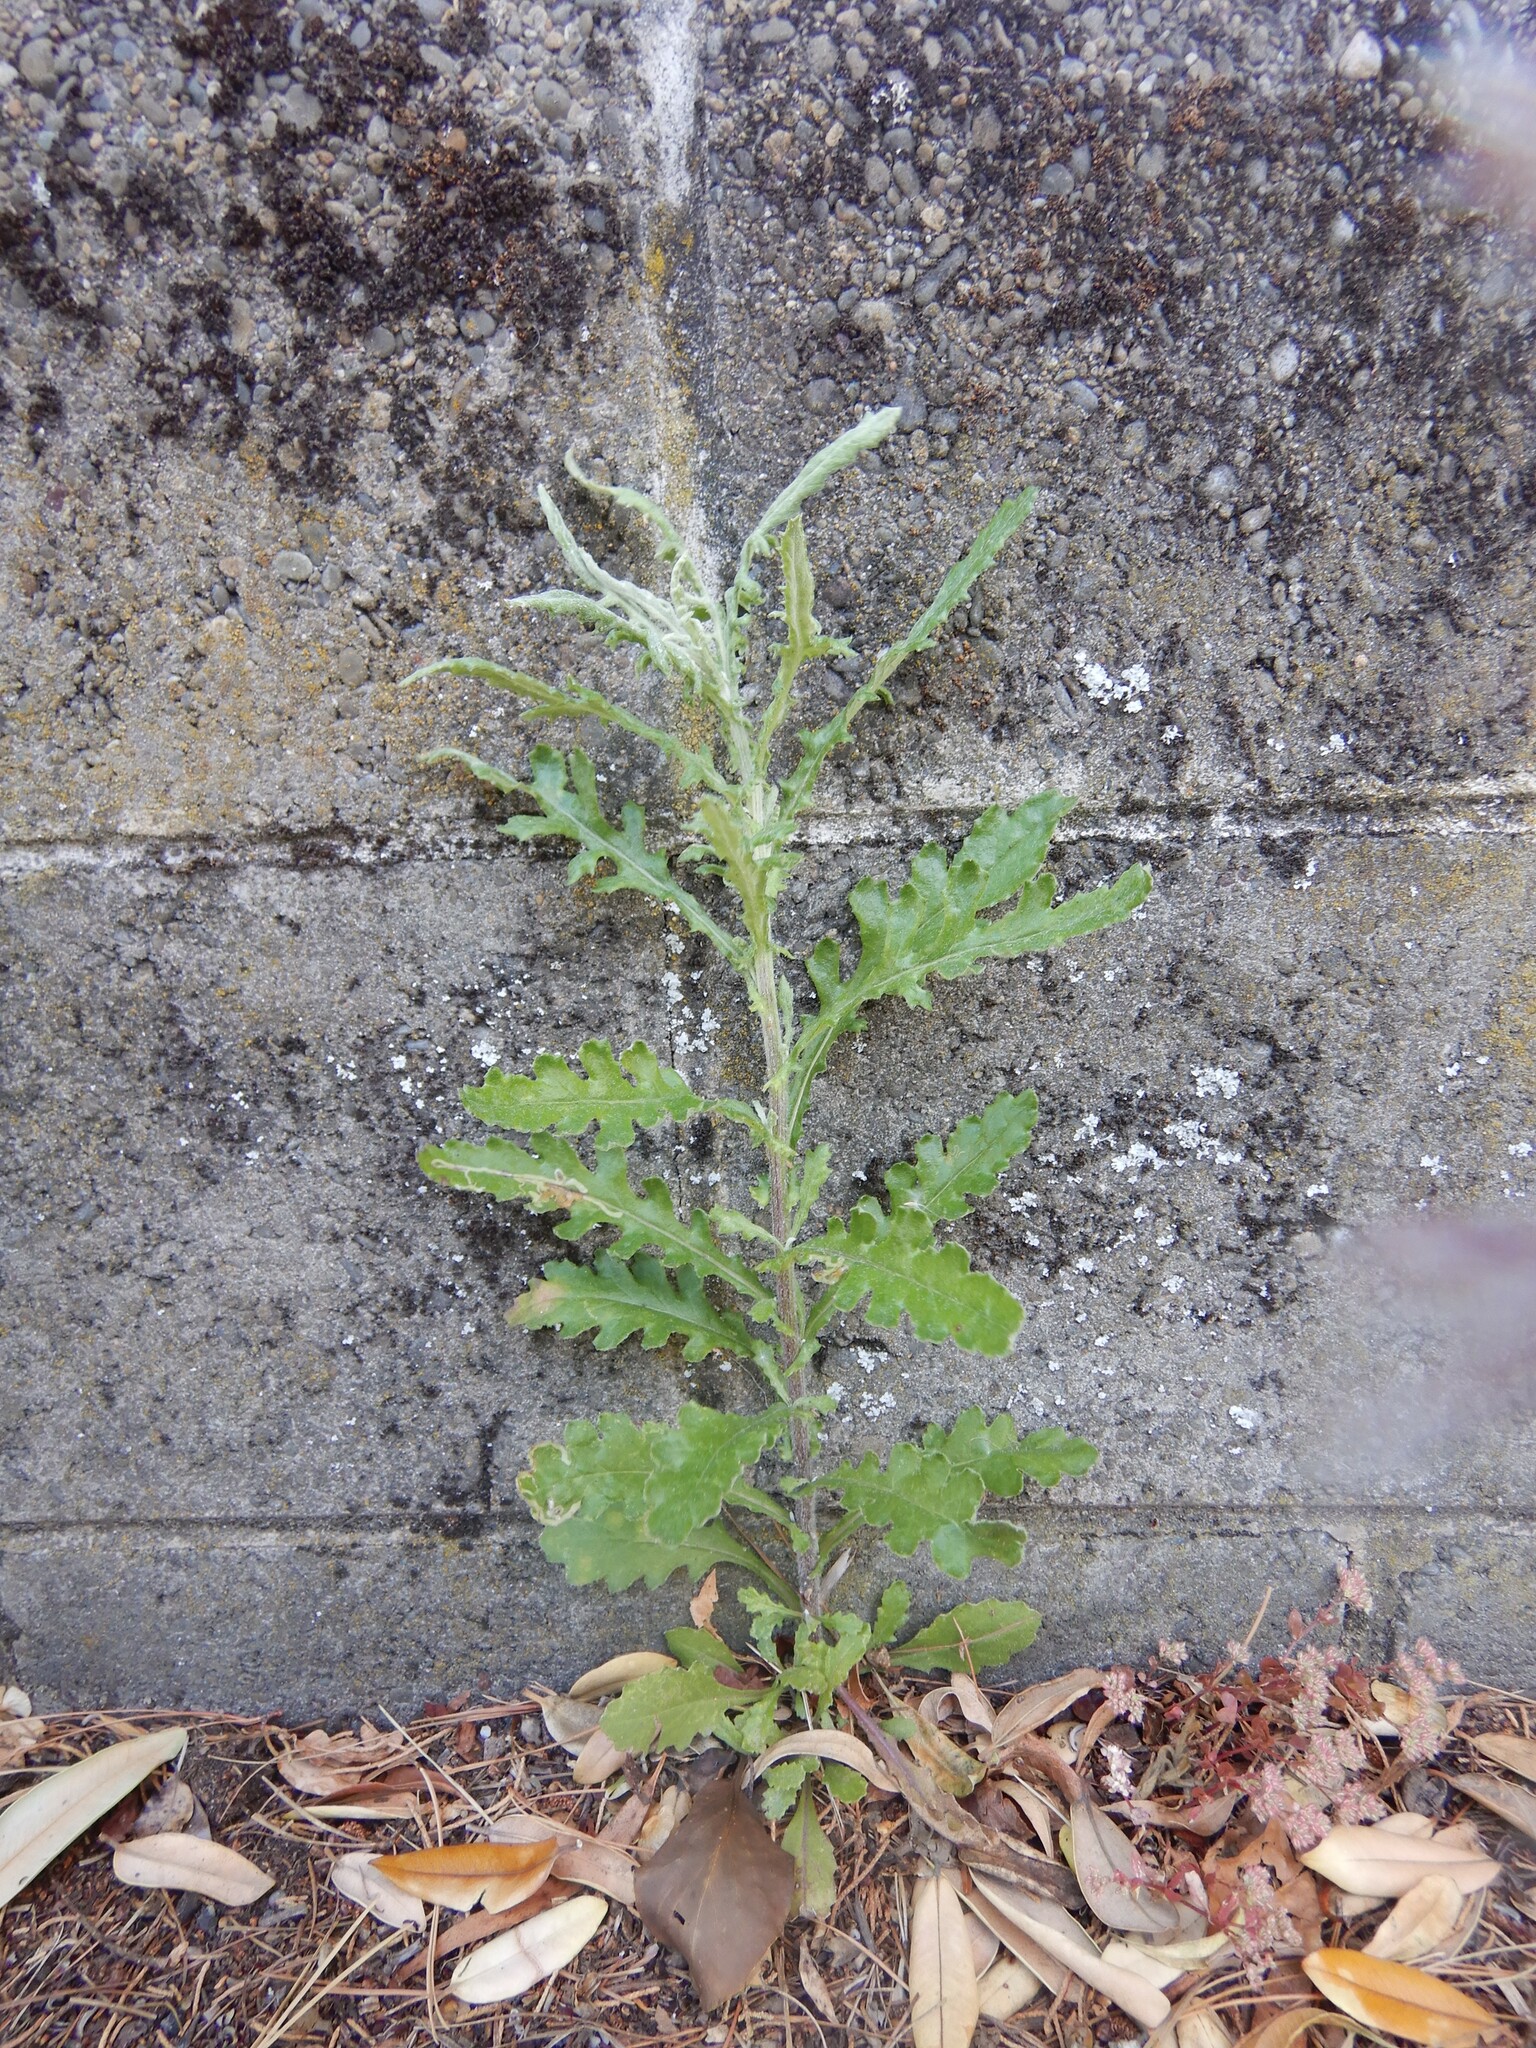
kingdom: Plantae
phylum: Tracheophyta
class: Magnoliopsida
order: Asterales
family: Asteraceae
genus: Senecio
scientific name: Senecio glomeratus
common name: Cutleaf burnweed
